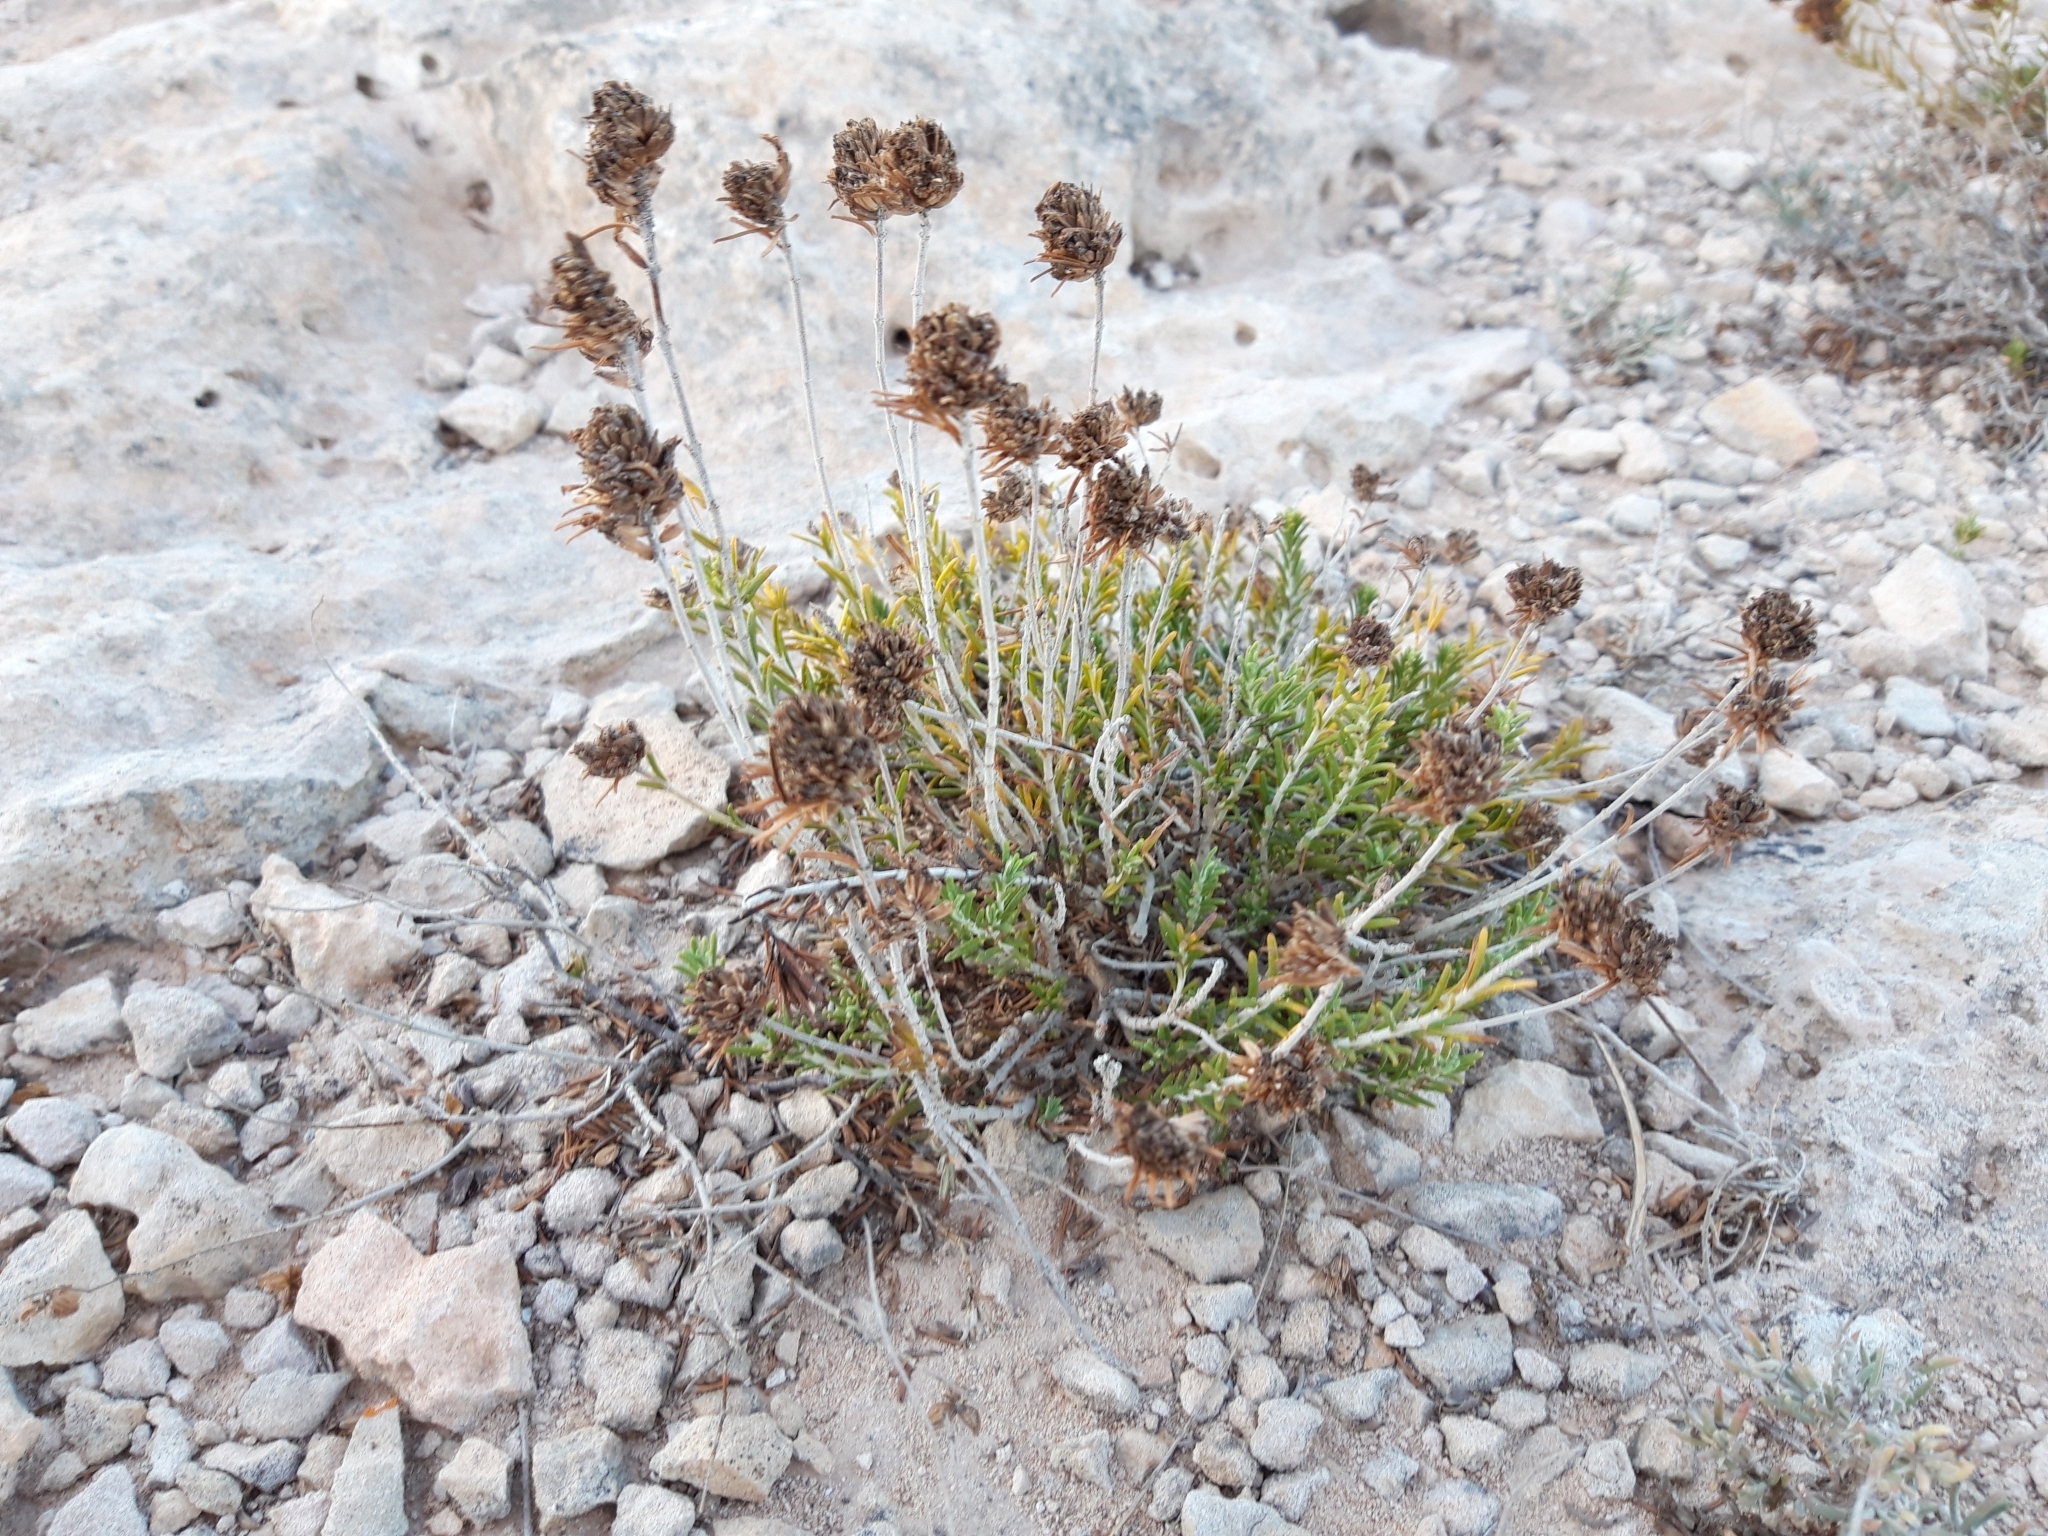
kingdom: Plantae
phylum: Tracheophyta
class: Magnoliopsida
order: Lamiales
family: Lamiaceae
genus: Teucrium
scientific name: Teucrium carolipaui
